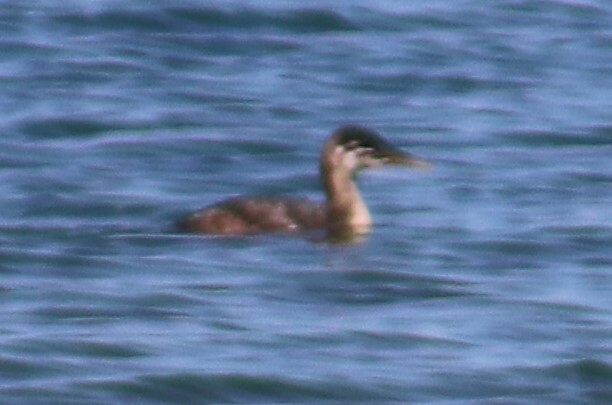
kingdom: Animalia
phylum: Chordata
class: Aves
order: Podicipediformes
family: Podicipedidae
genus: Podiceps
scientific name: Podiceps grisegena
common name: Red-necked grebe
